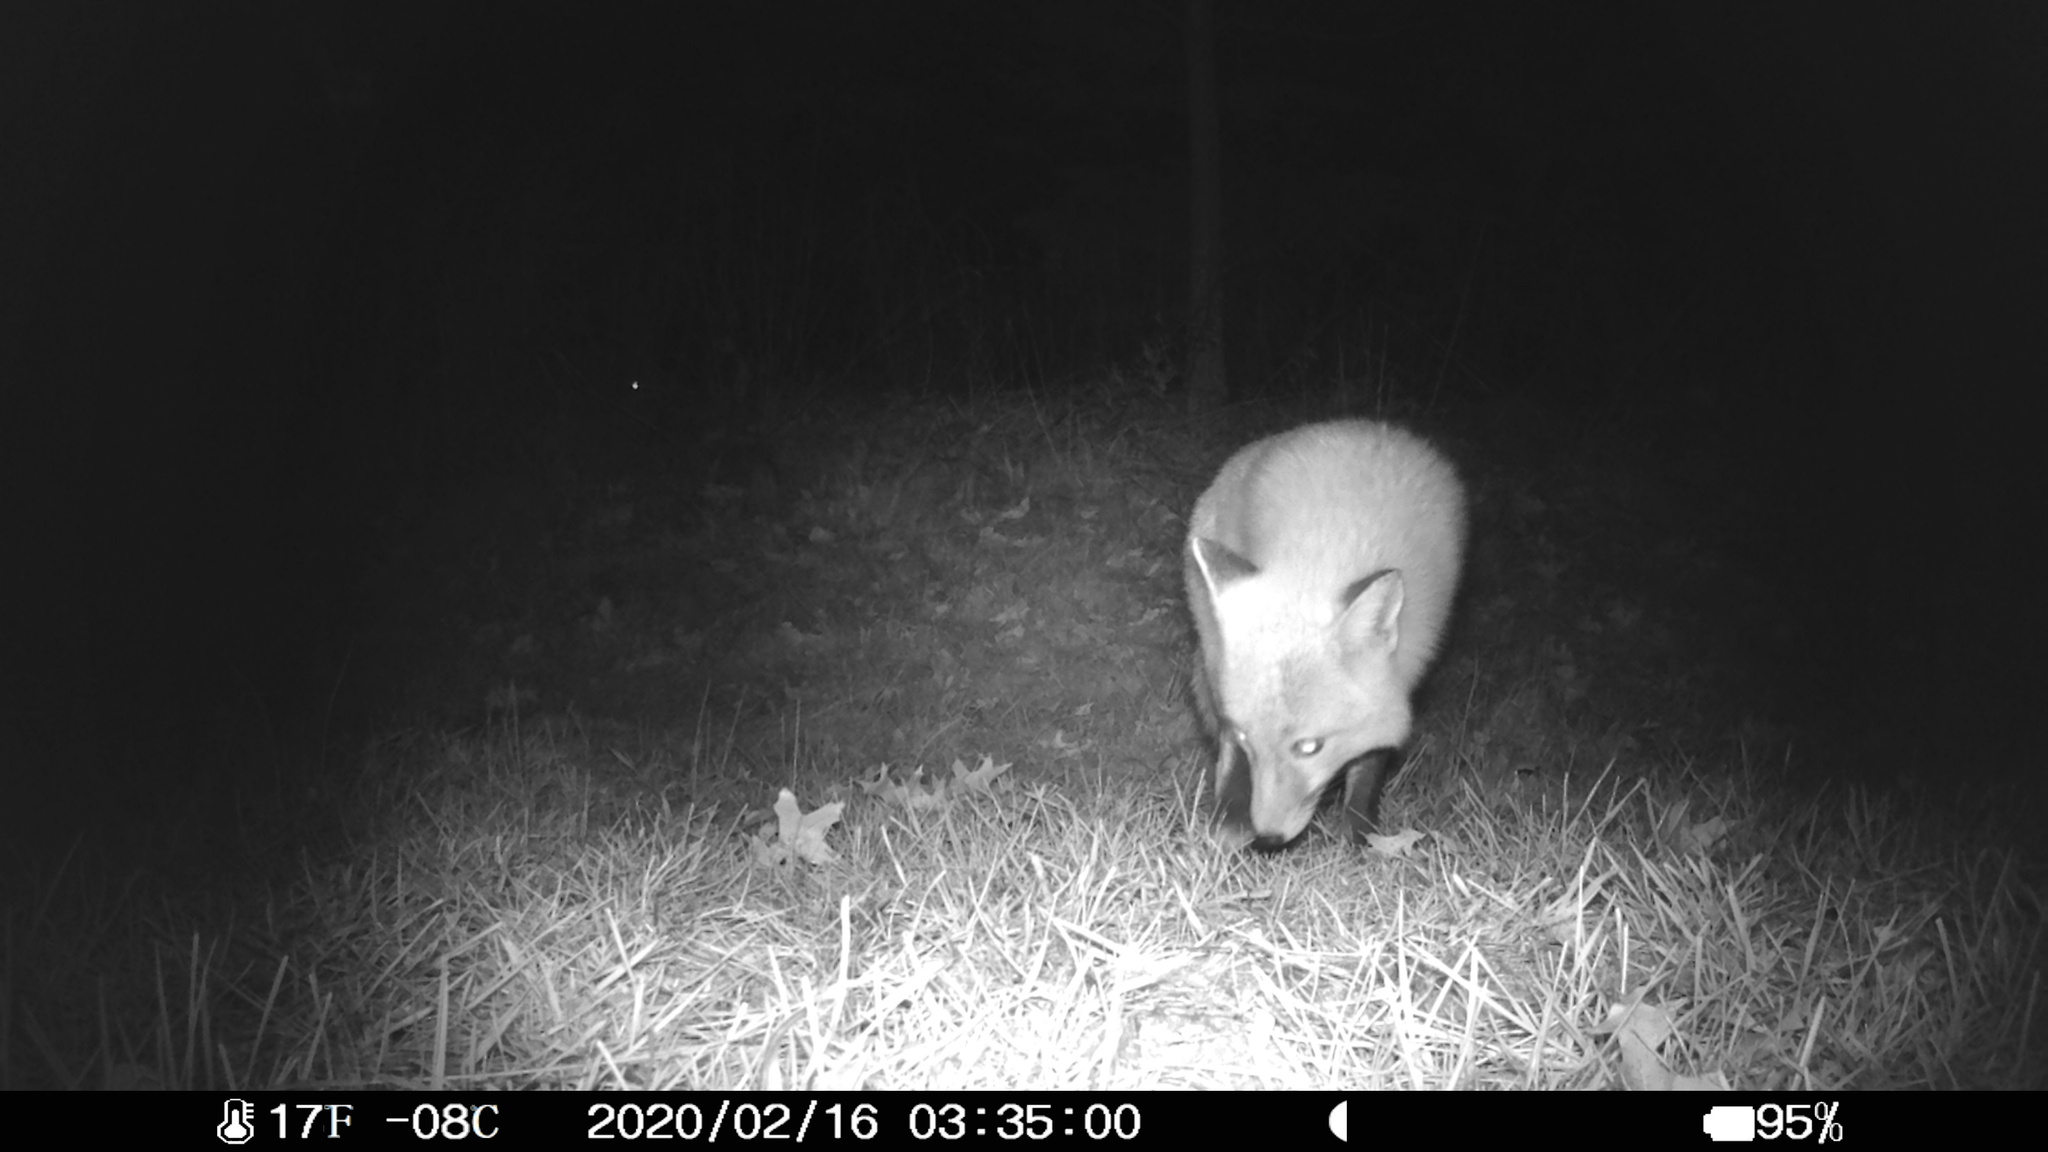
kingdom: Animalia
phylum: Chordata
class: Mammalia
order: Carnivora
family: Canidae
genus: Vulpes
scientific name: Vulpes vulpes
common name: Red fox
